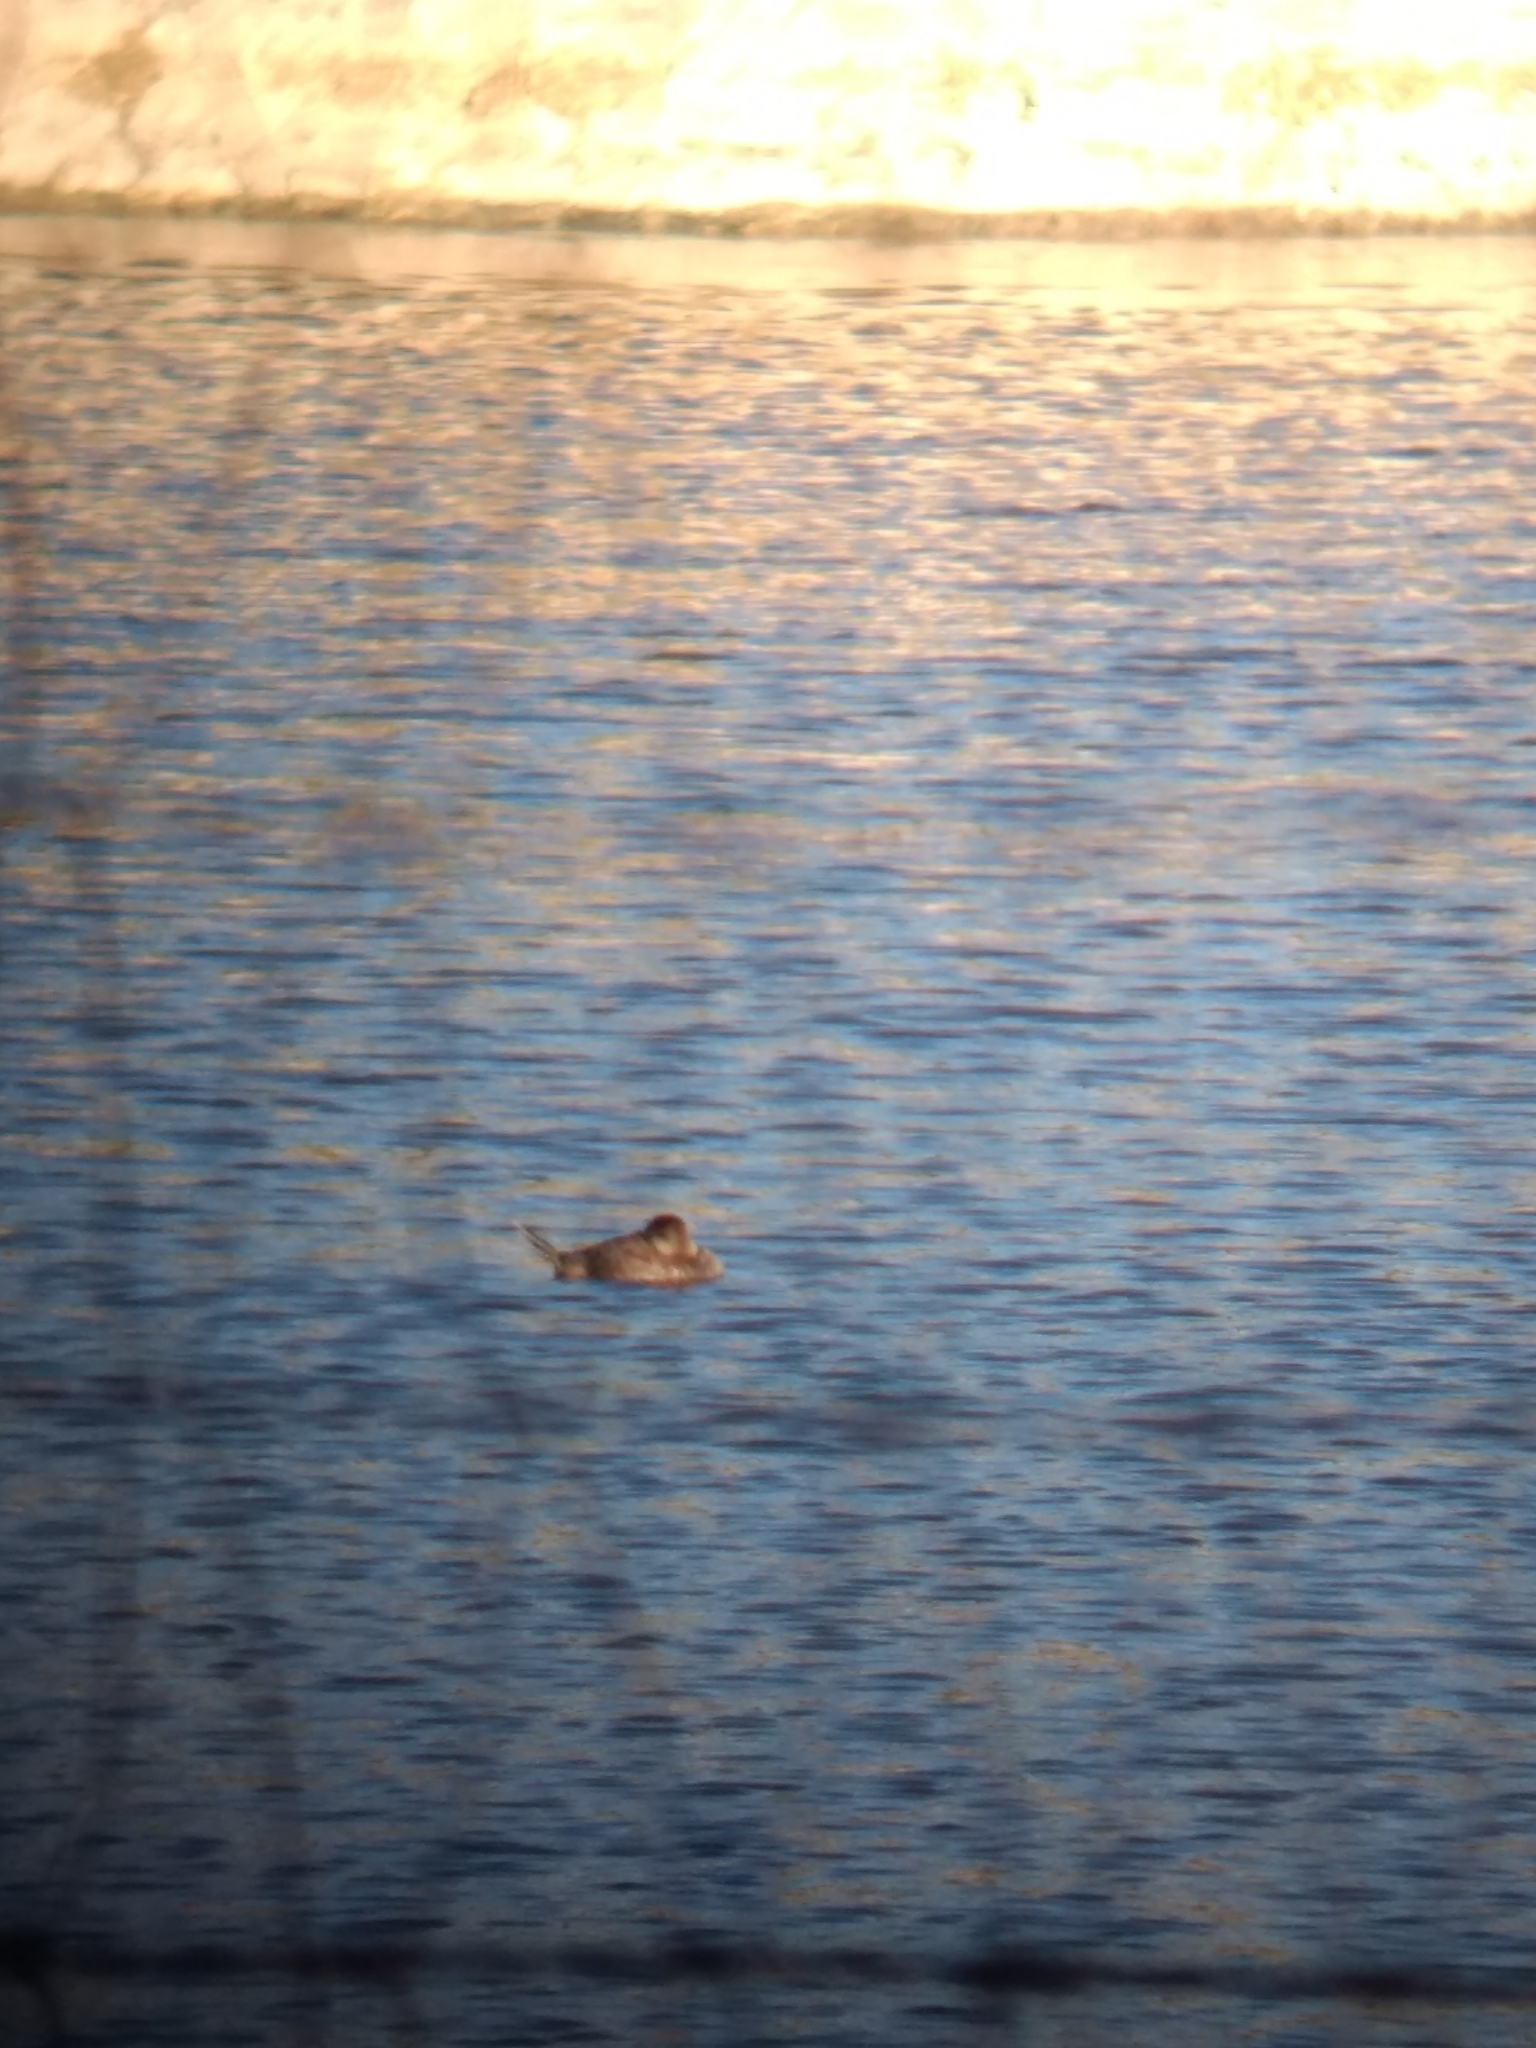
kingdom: Animalia
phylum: Chordata
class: Aves
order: Anseriformes
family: Anatidae
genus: Oxyura
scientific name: Oxyura jamaicensis
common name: Ruddy duck
